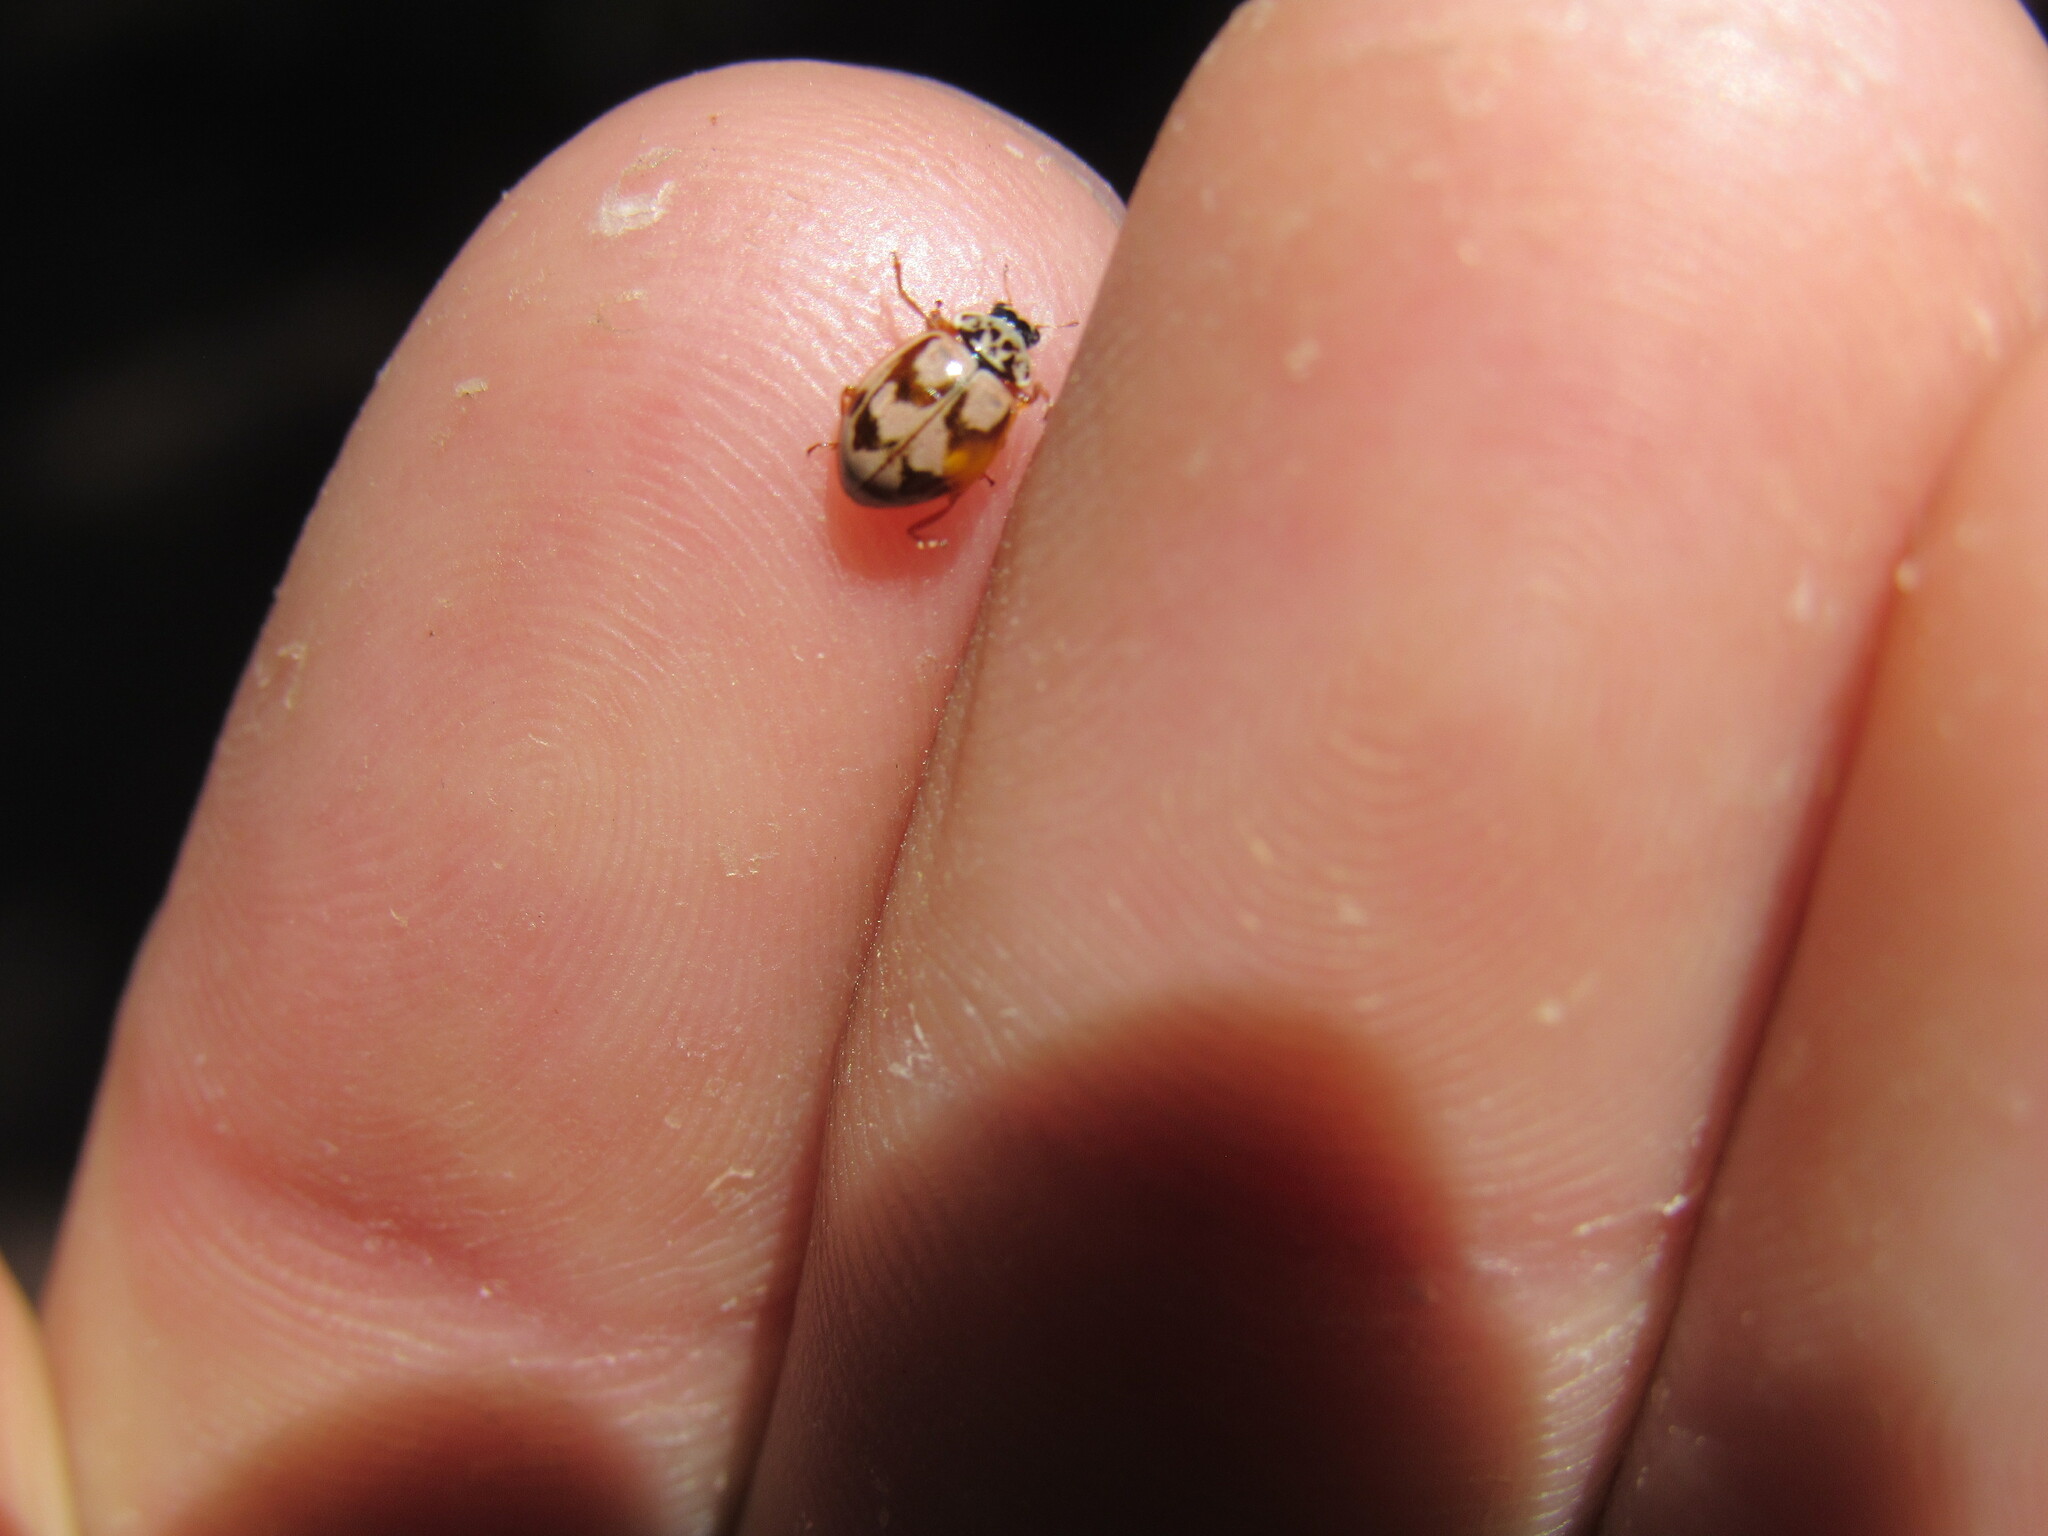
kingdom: Animalia
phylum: Arthropoda
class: Insecta
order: Coleoptera
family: Coccinellidae
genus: Mulsantina
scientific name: Mulsantina picta
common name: Painted ladybird
